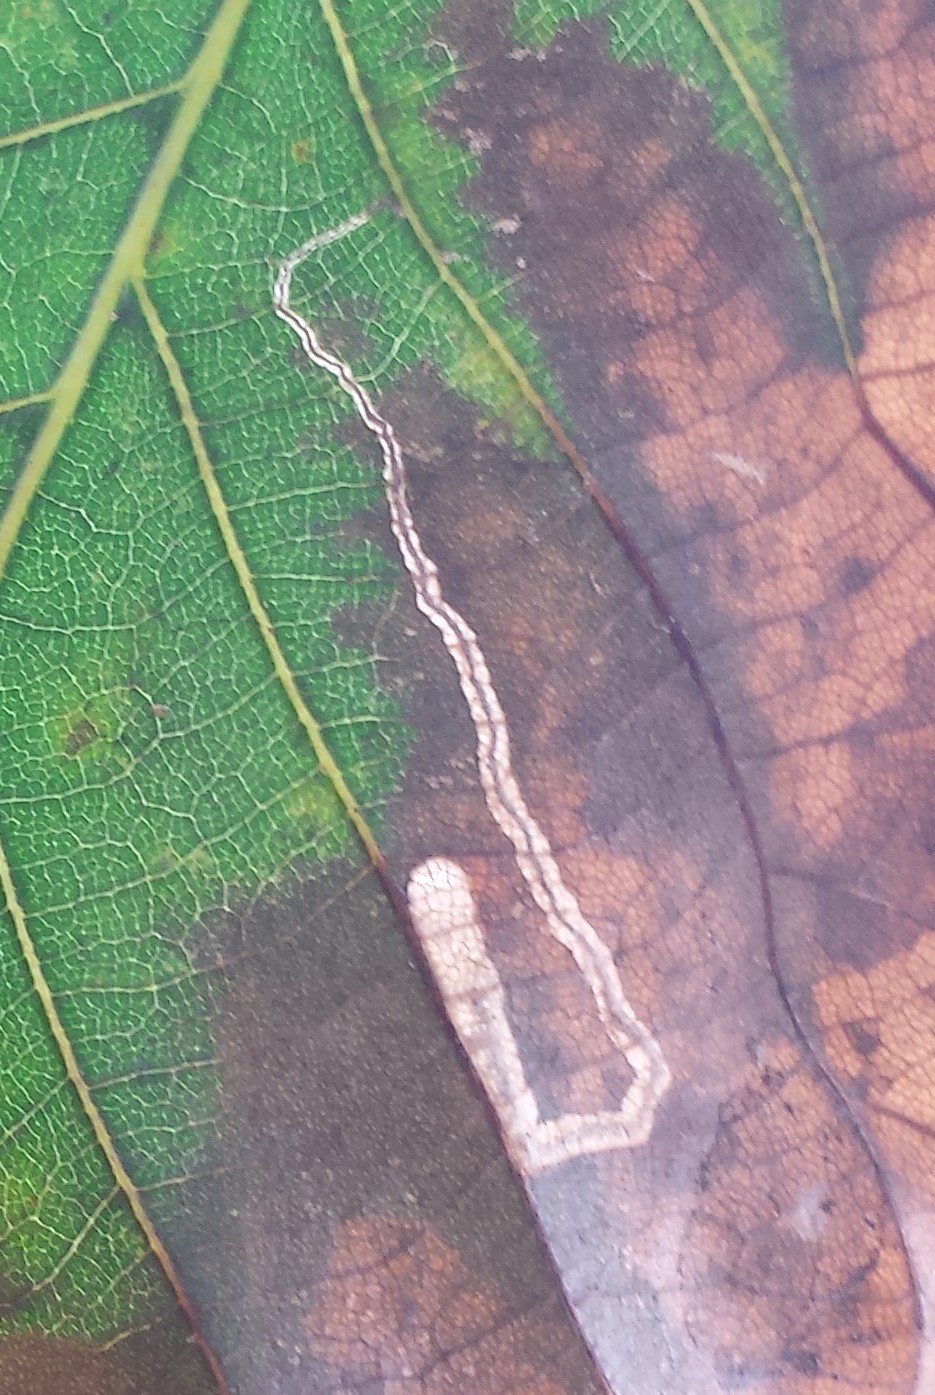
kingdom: Animalia
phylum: Arthropoda
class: Insecta
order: Lepidoptera
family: Nepticulidae
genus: Stigmella
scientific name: Stigmella caryaefoliella
